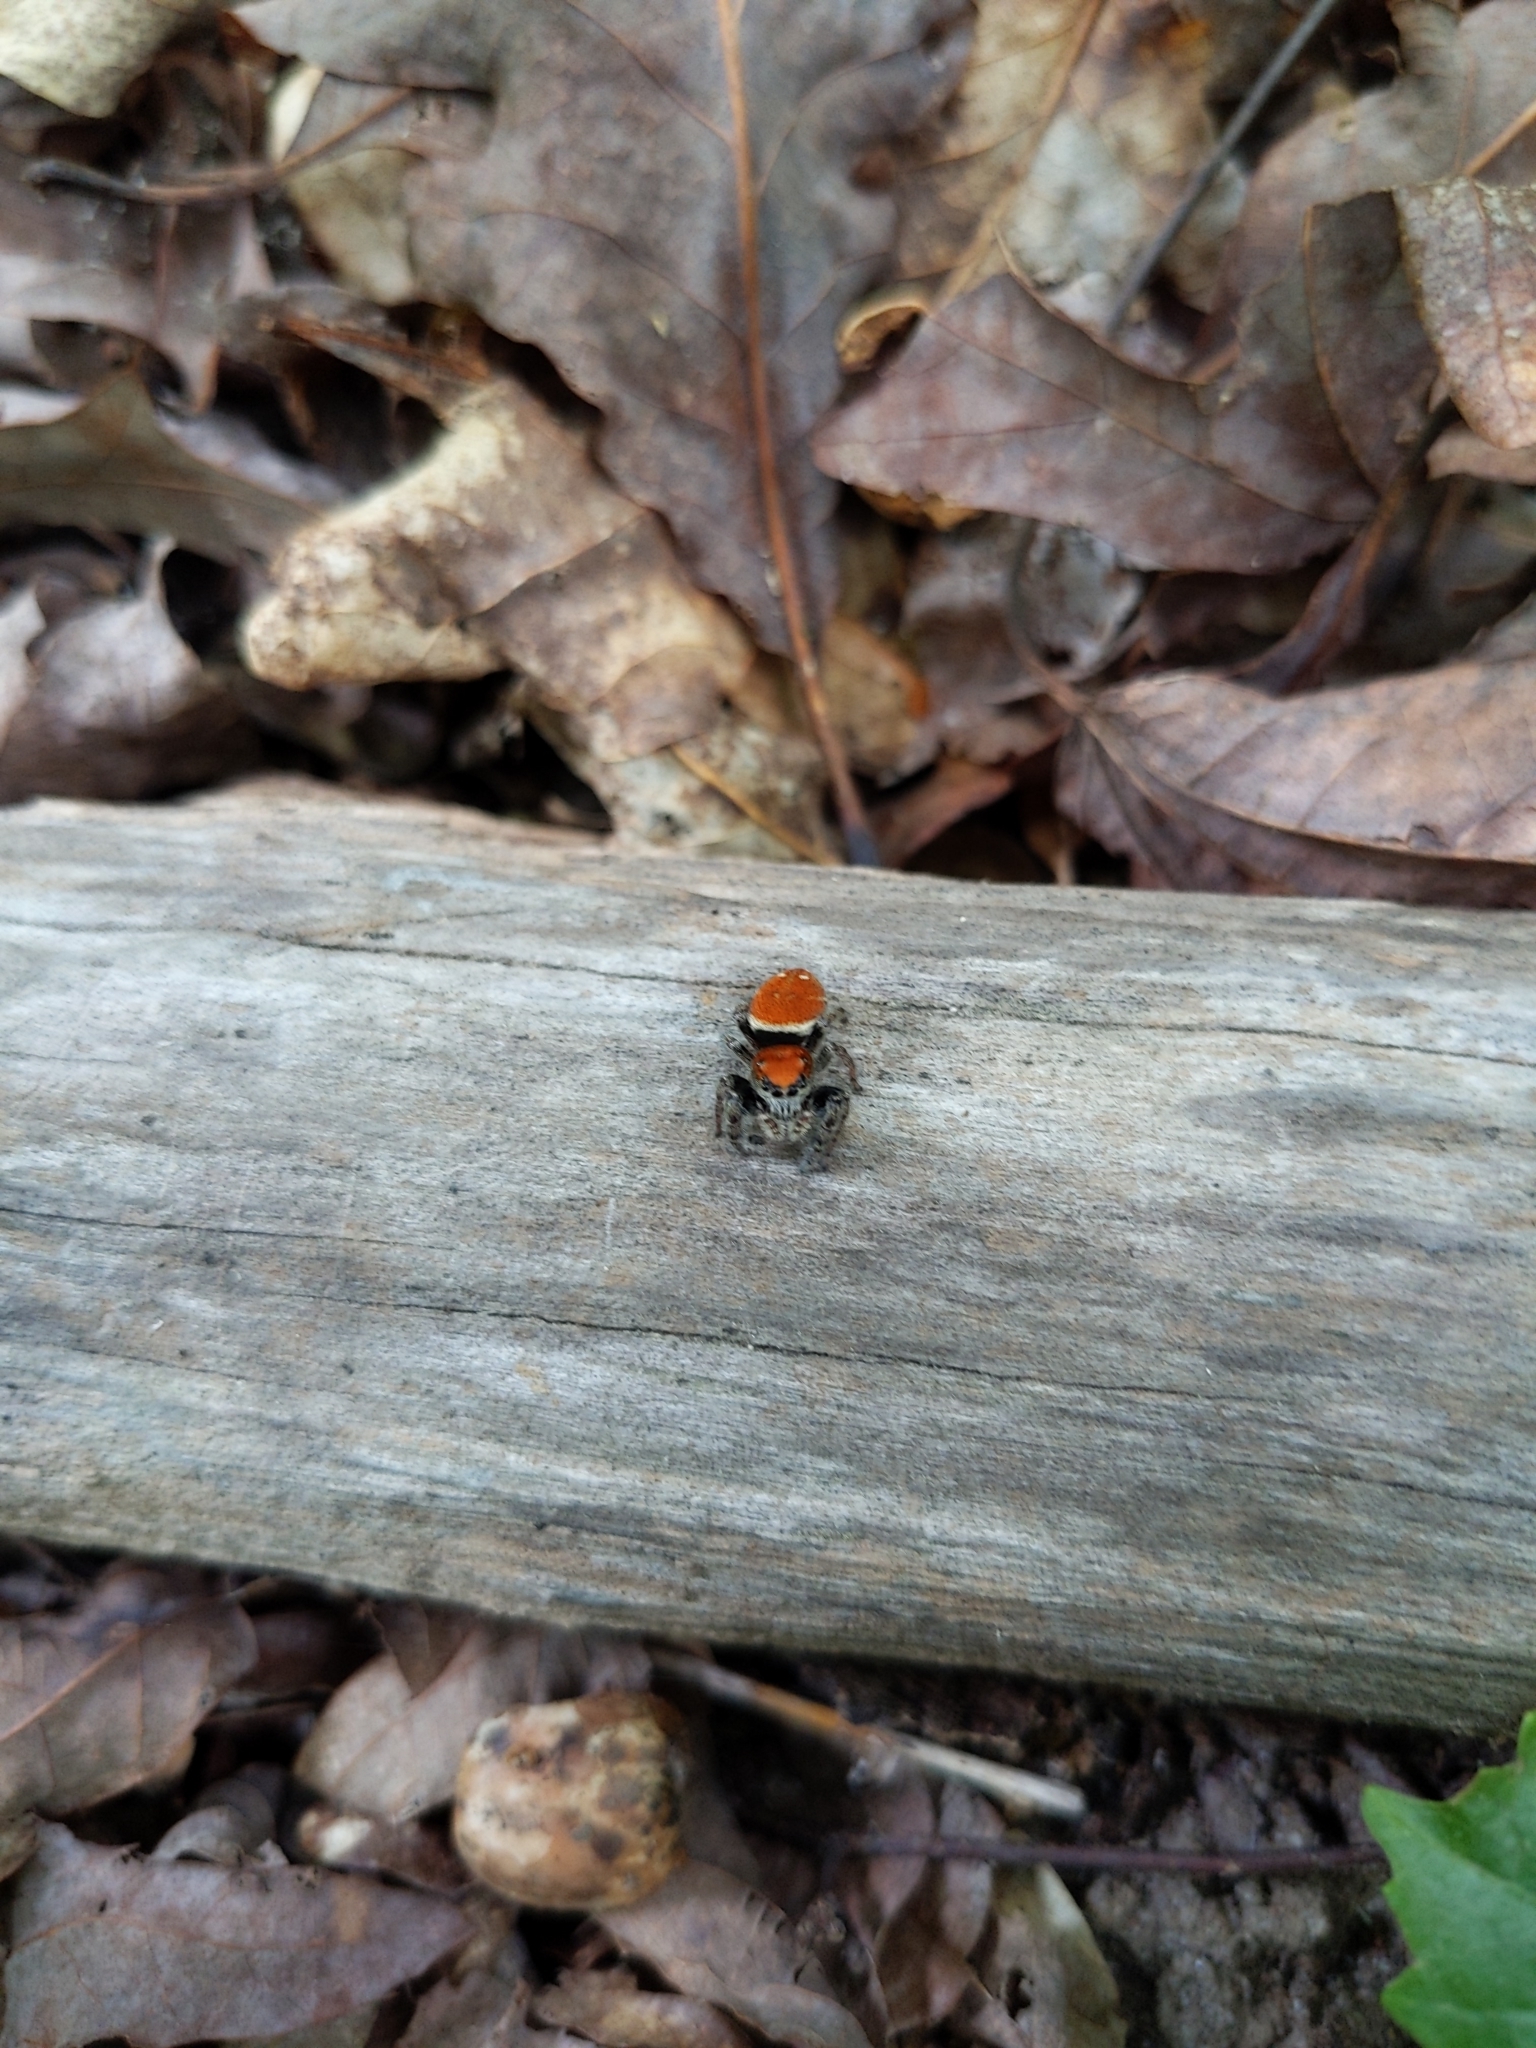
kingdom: Animalia
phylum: Arthropoda
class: Arachnida
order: Araneae
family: Salticidae
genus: Phidippus
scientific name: Phidippus whitmani
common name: Whitman's jumping spider
